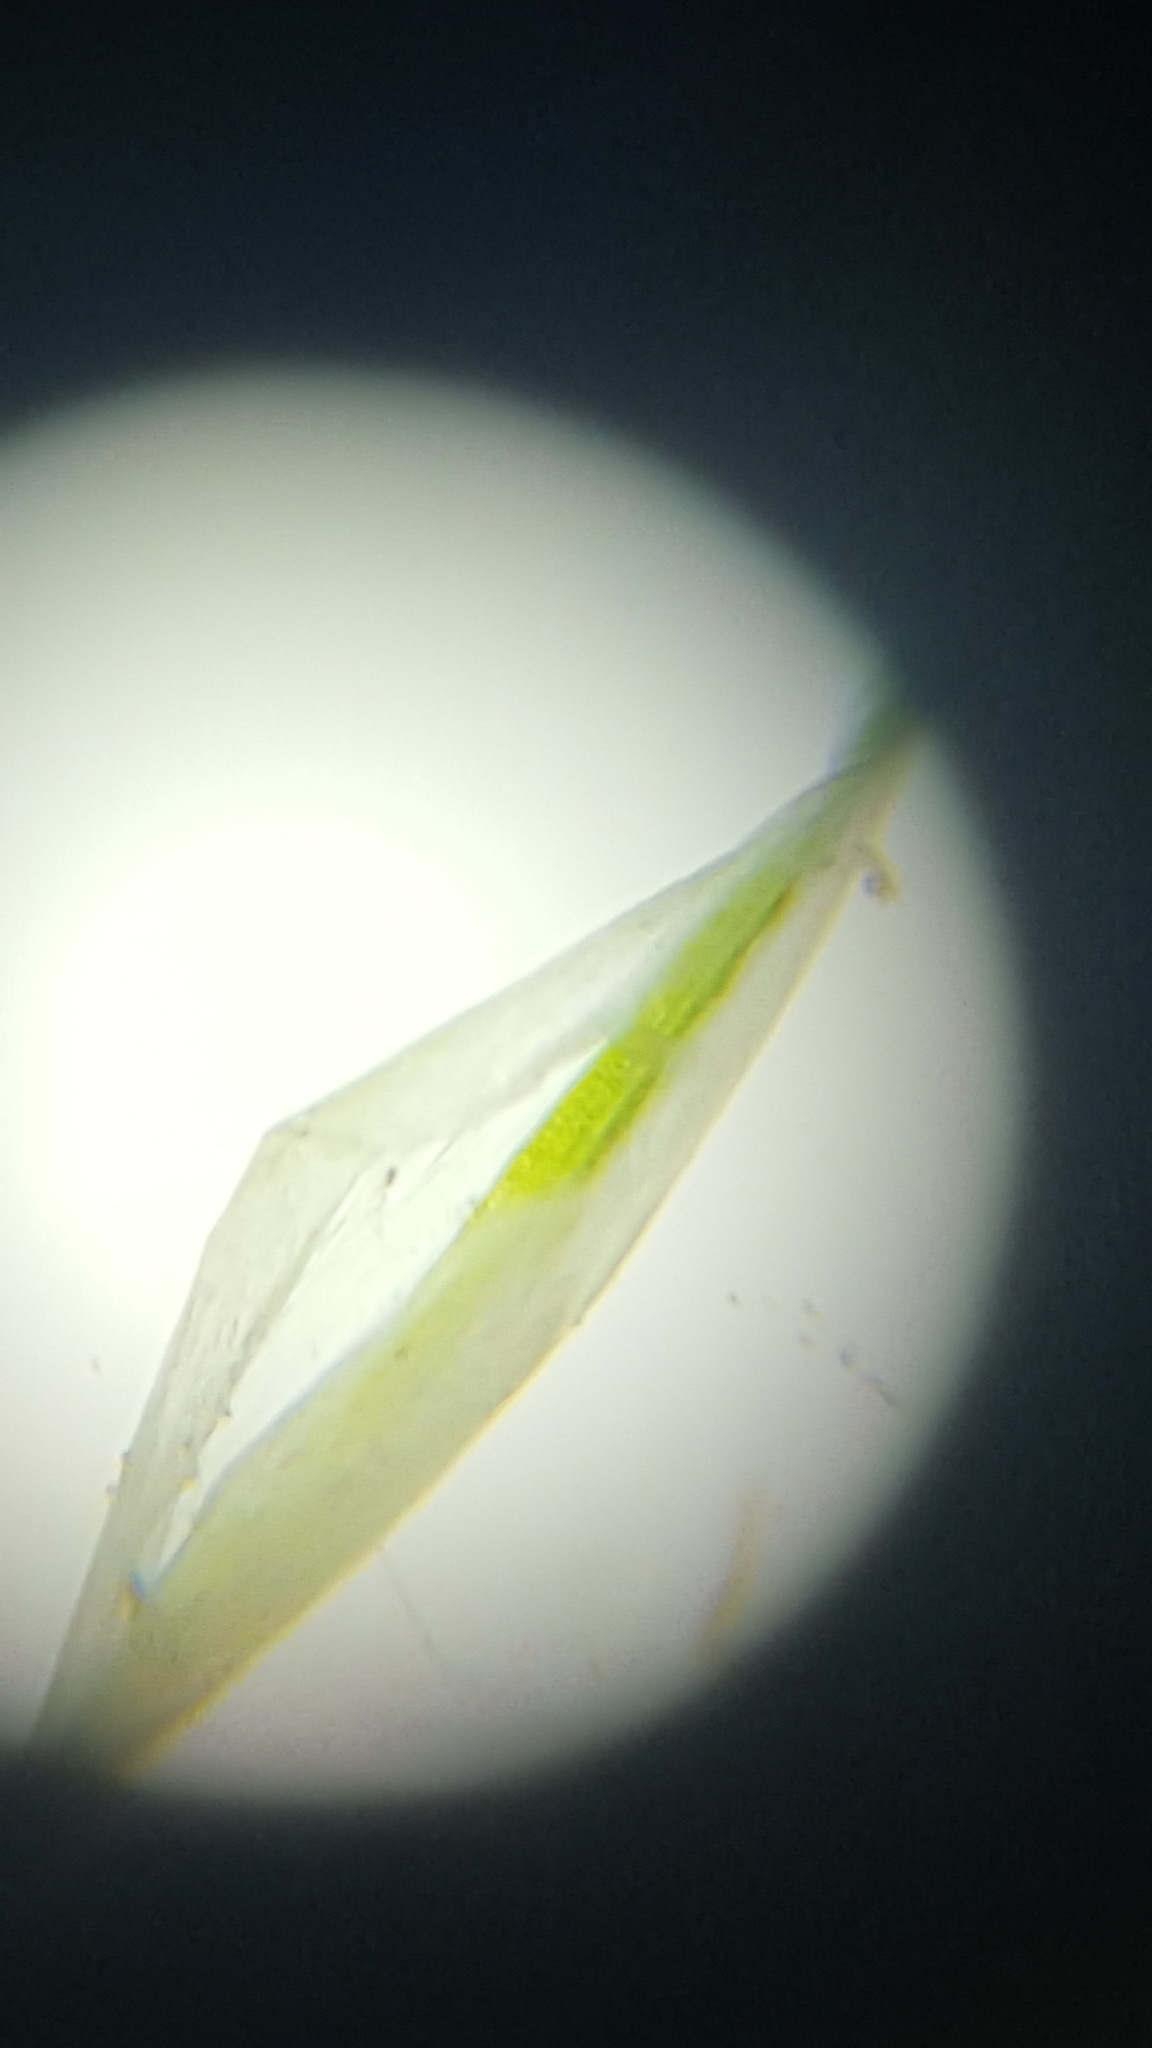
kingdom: Plantae
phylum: Tracheophyta
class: Liliopsida
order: Poales
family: Cyperaceae
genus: Carex
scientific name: Carex deweyana
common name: Dewey's sedge
